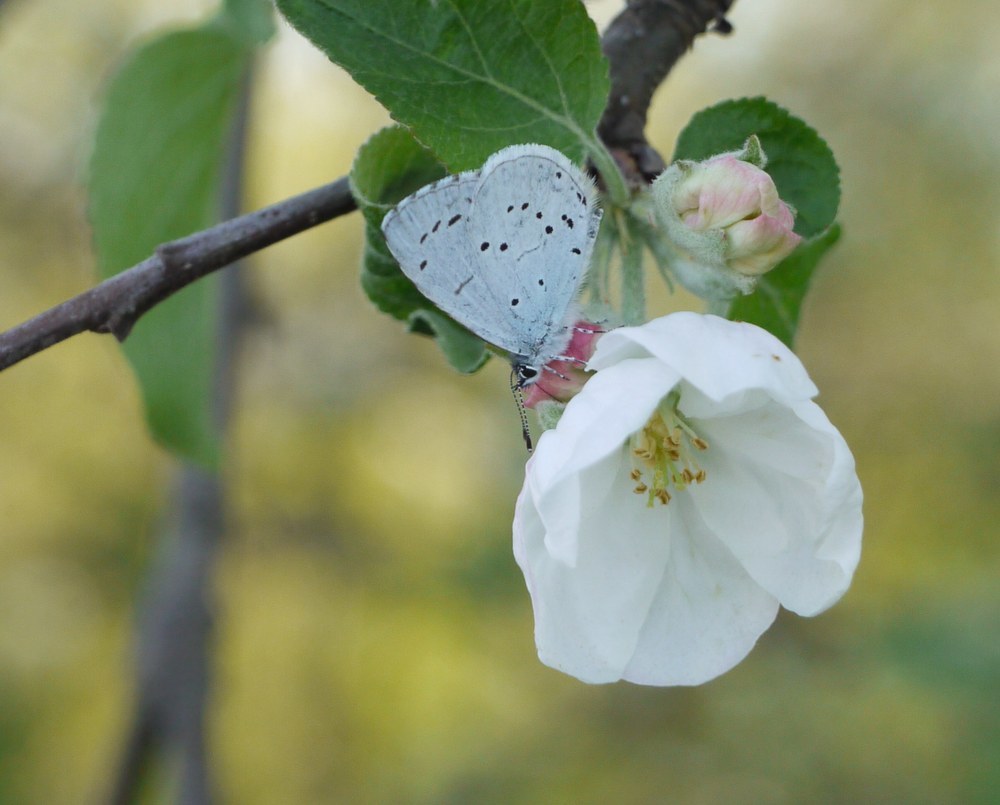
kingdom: Animalia
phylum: Arthropoda
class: Insecta
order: Lepidoptera
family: Lycaenidae
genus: Celastrina
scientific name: Celastrina argiolus
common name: Holly blue
